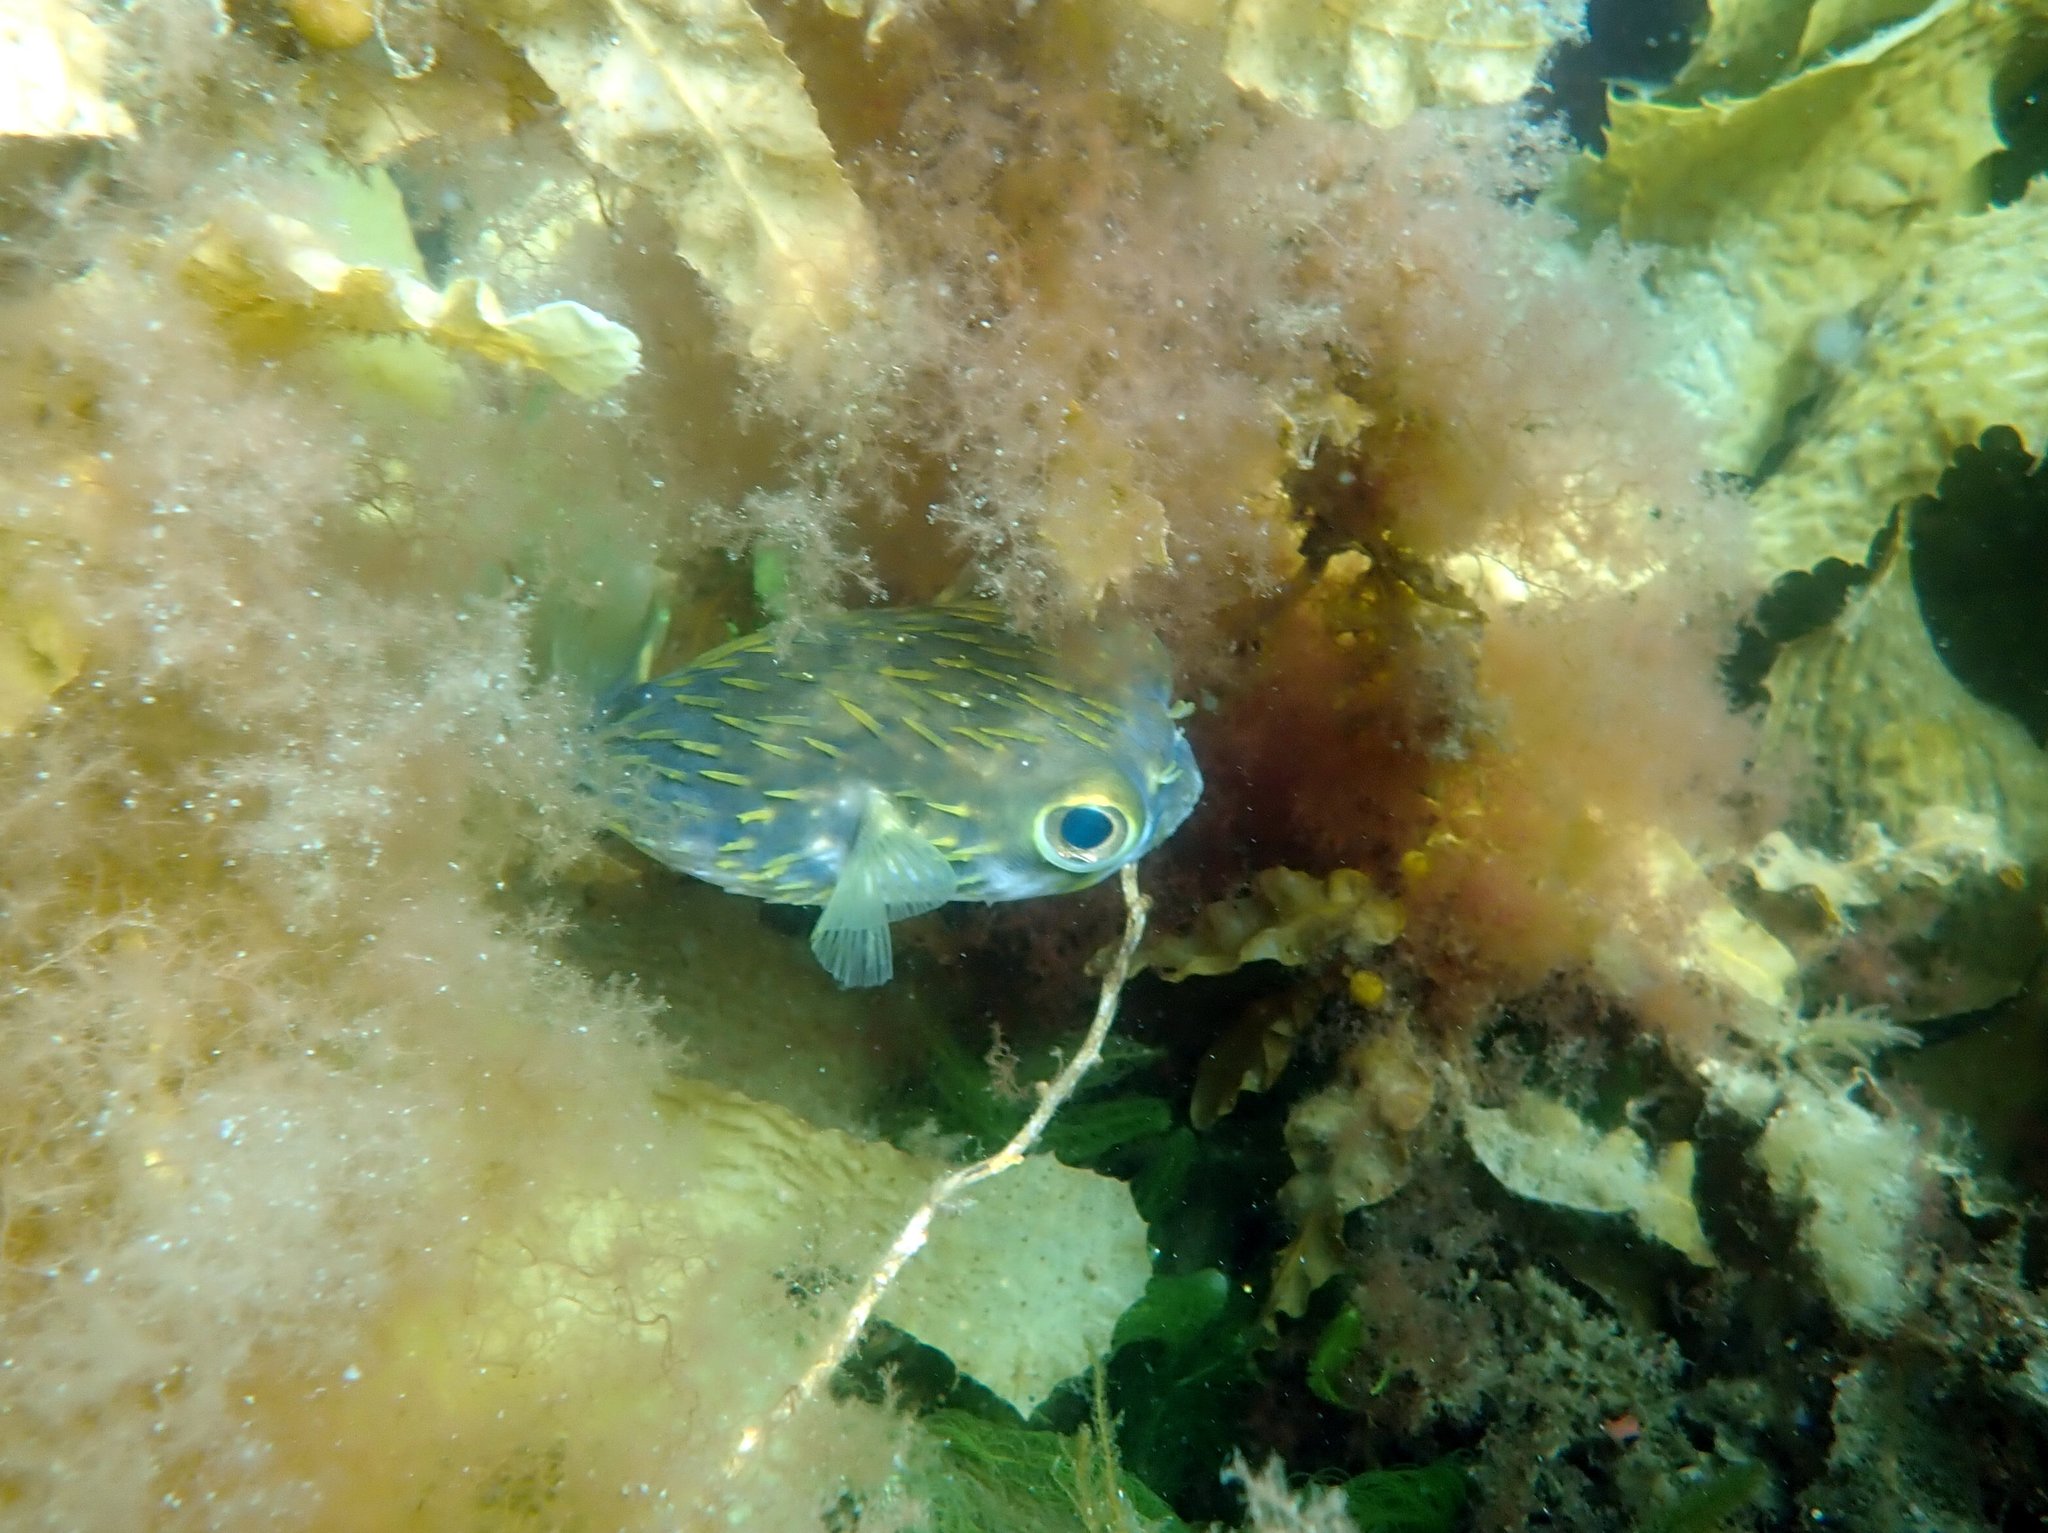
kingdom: Animalia
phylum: Chordata
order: Tetraodontiformes
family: Diodontidae
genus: Diodon
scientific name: Diodon nicthemerus
